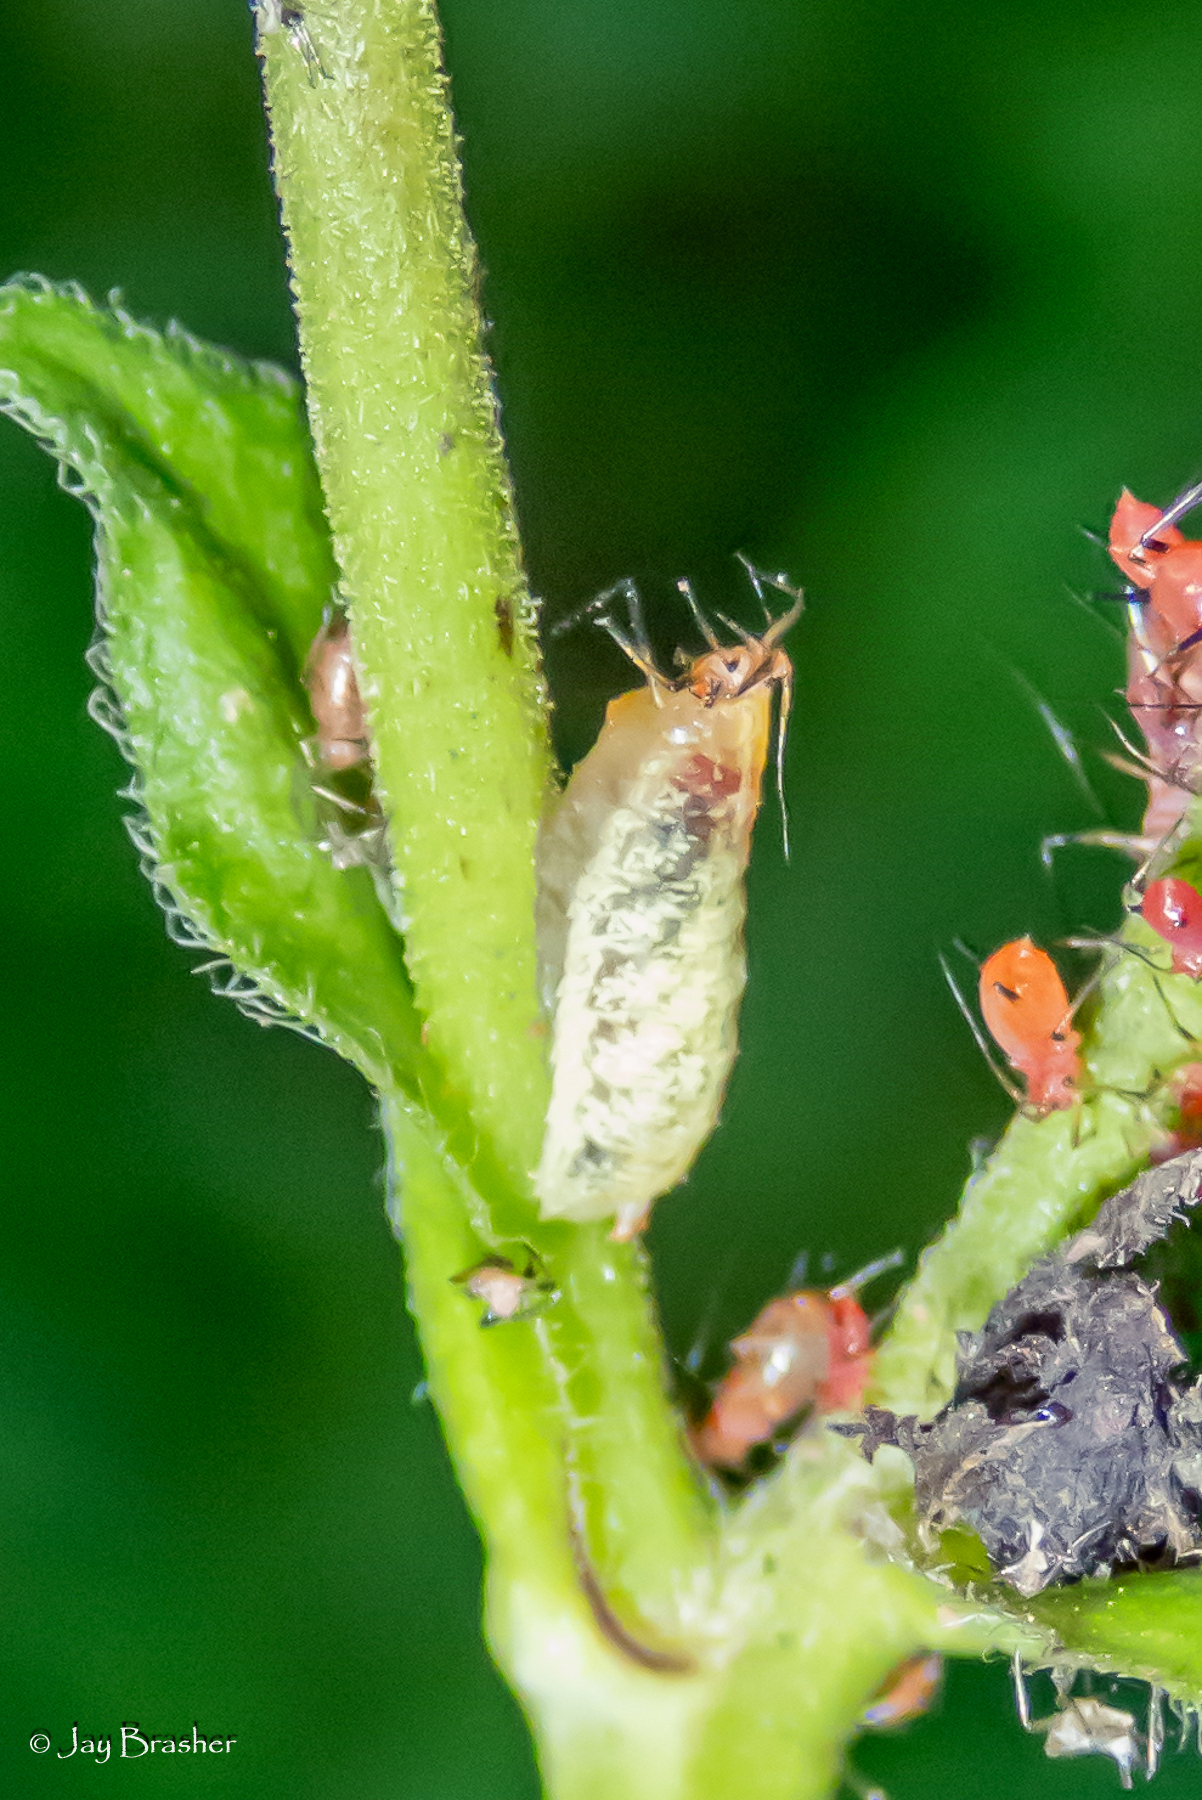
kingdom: Animalia
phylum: Arthropoda
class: Insecta
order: Diptera
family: Syrphidae
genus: Epistrophella
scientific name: Epistrophella emarginata
